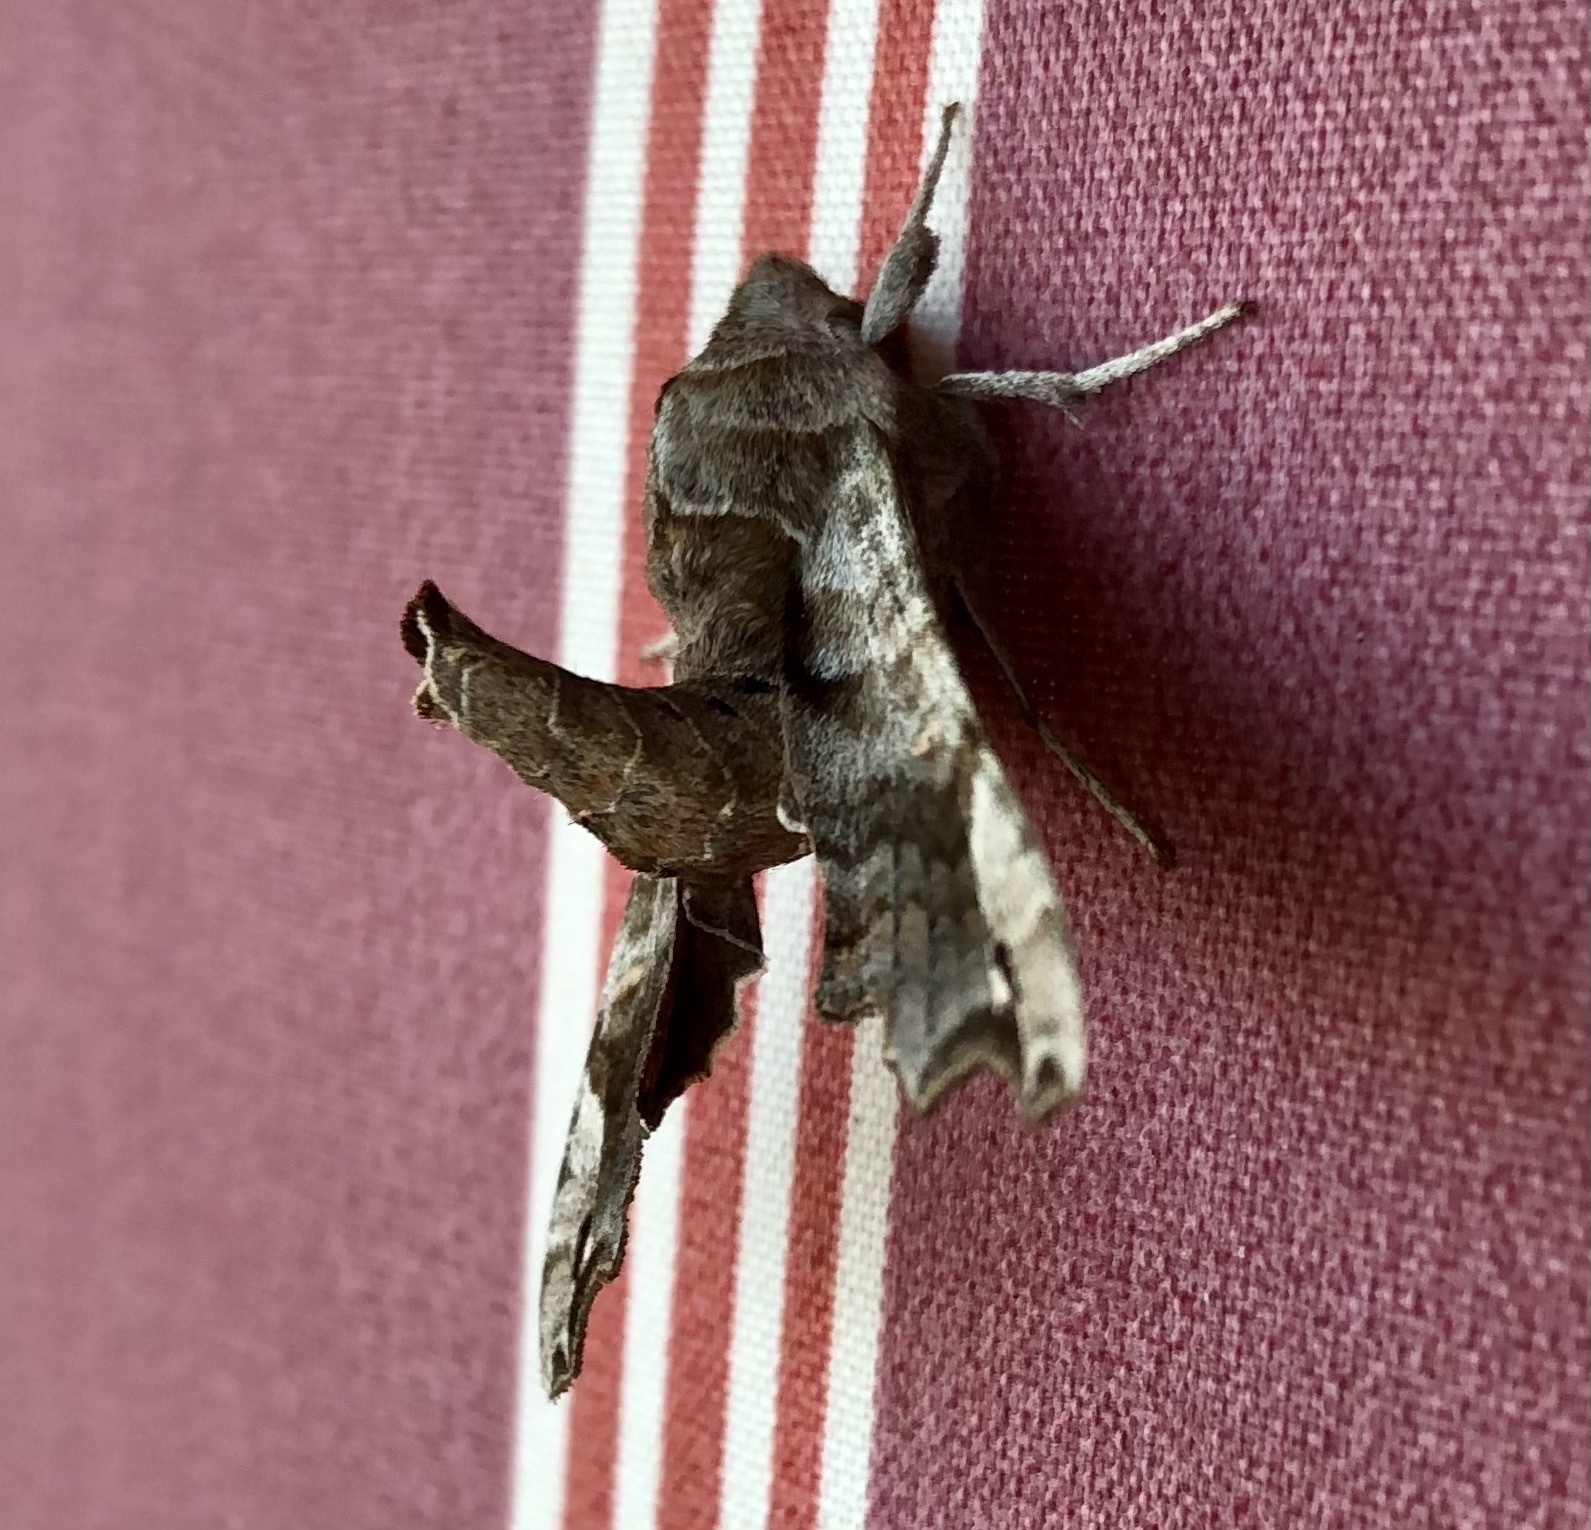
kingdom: Animalia
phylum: Arthropoda
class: Insecta
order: Lepidoptera
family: Sphingidae
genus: Deidamia
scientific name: Deidamia inscriptum
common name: Lettered sphinx
